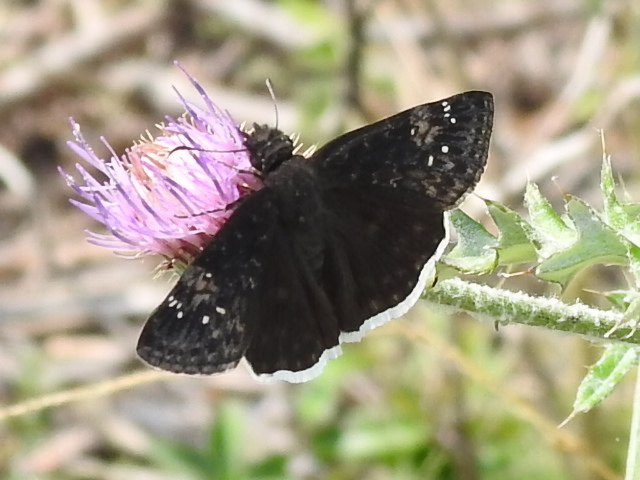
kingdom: Animalia
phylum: Arthropoda
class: Insecta
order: Lepidoptera
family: Hesperiidae
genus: Erynnis
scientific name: Erynnis funeralis
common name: Funereal duskywing
